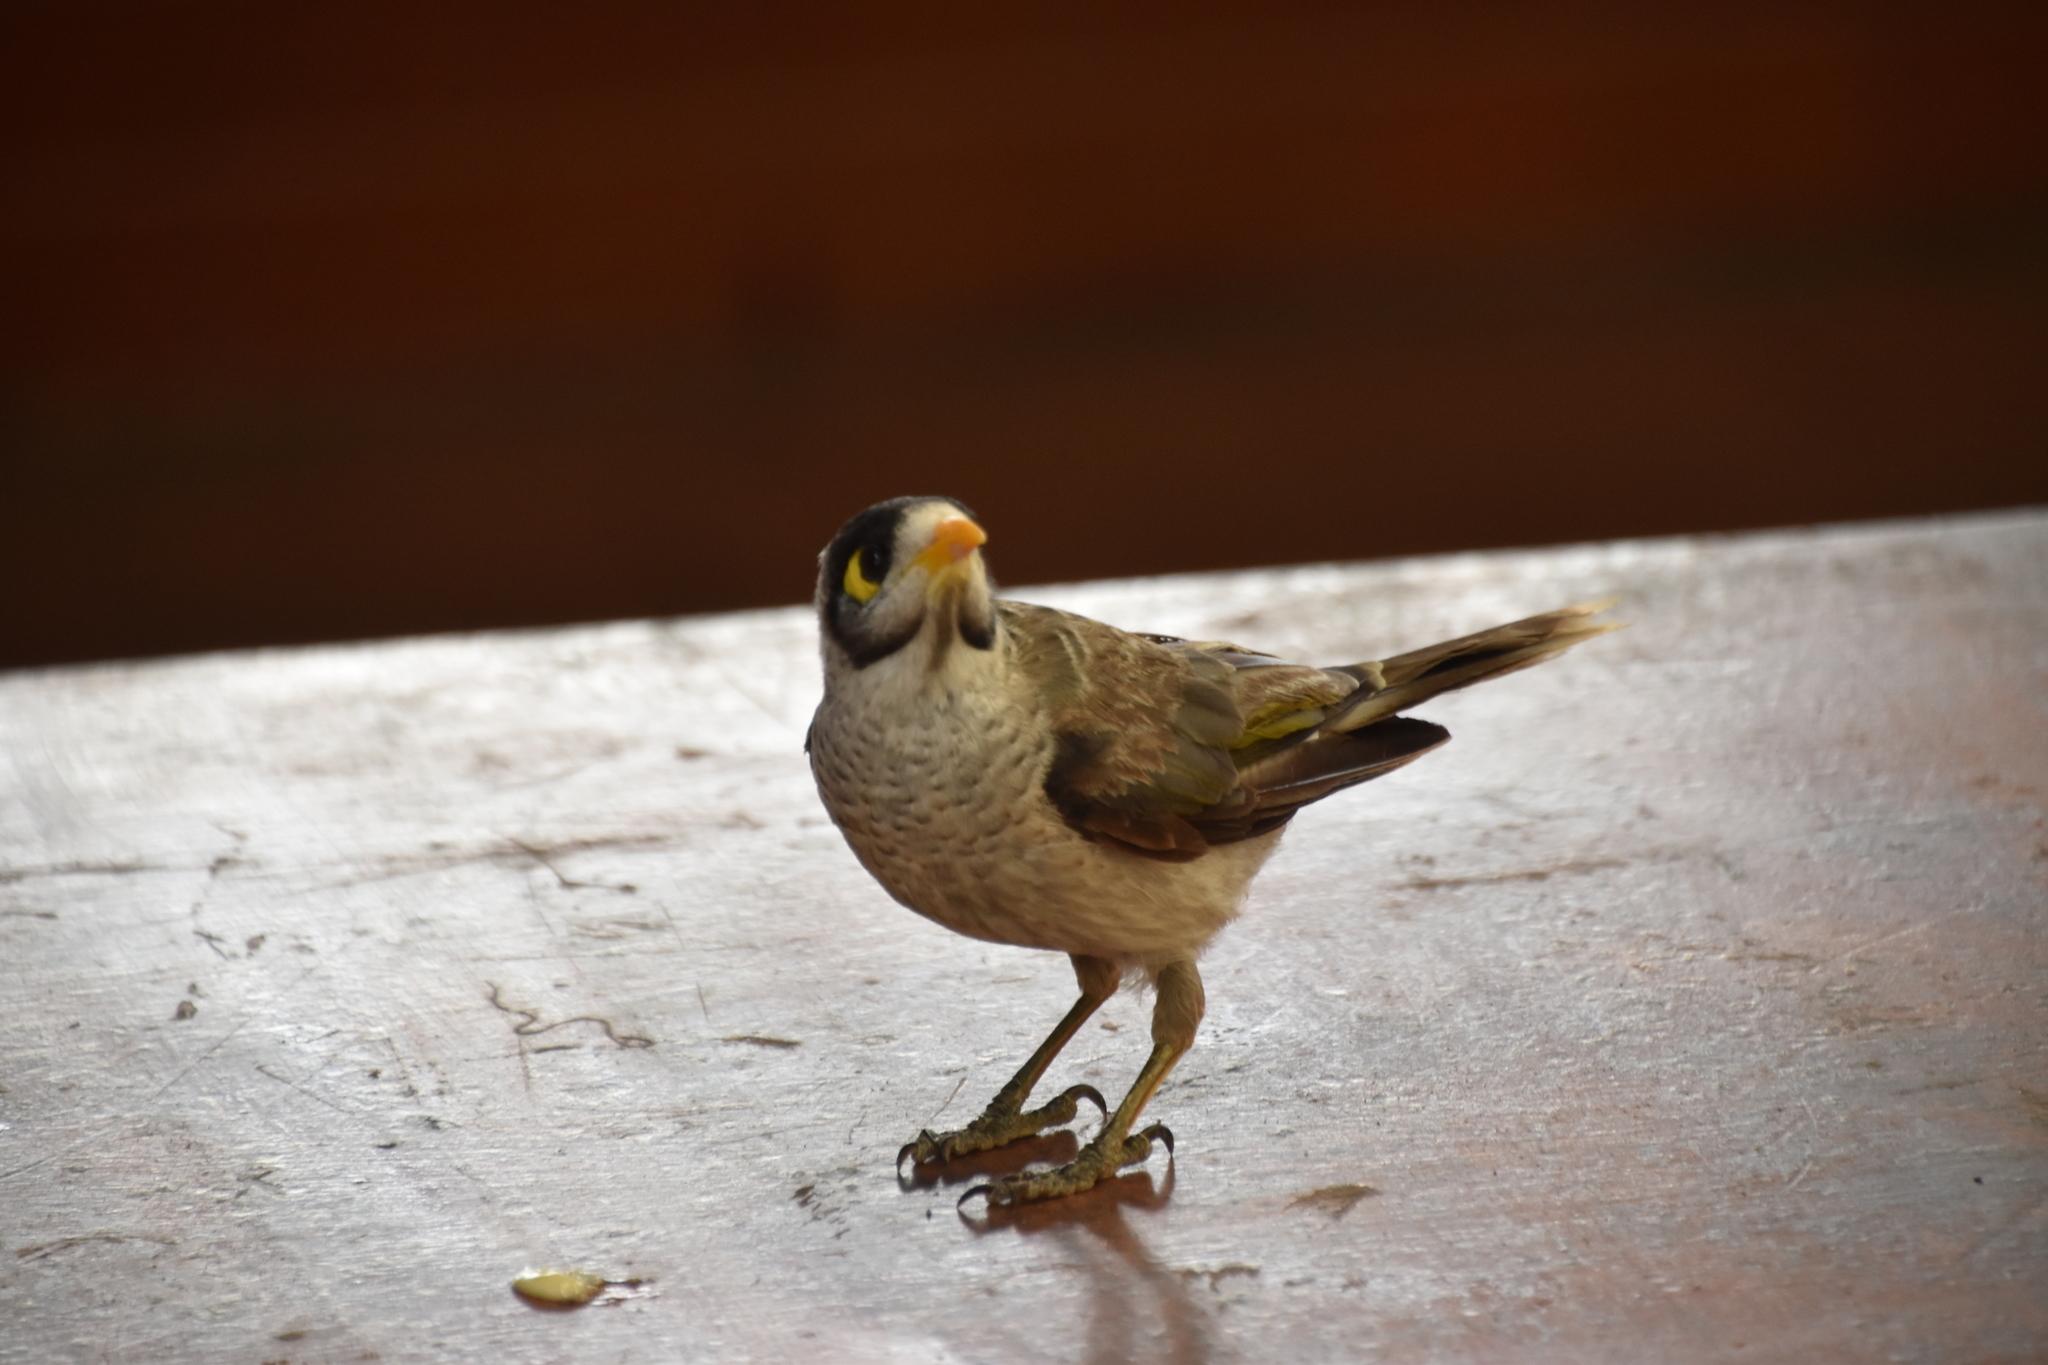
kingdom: Animalia
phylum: Chordata
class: Aves
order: Passeriformes
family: Meliphagidae
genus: Manorina
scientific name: Manorina melanocephala
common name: Noisy miner
